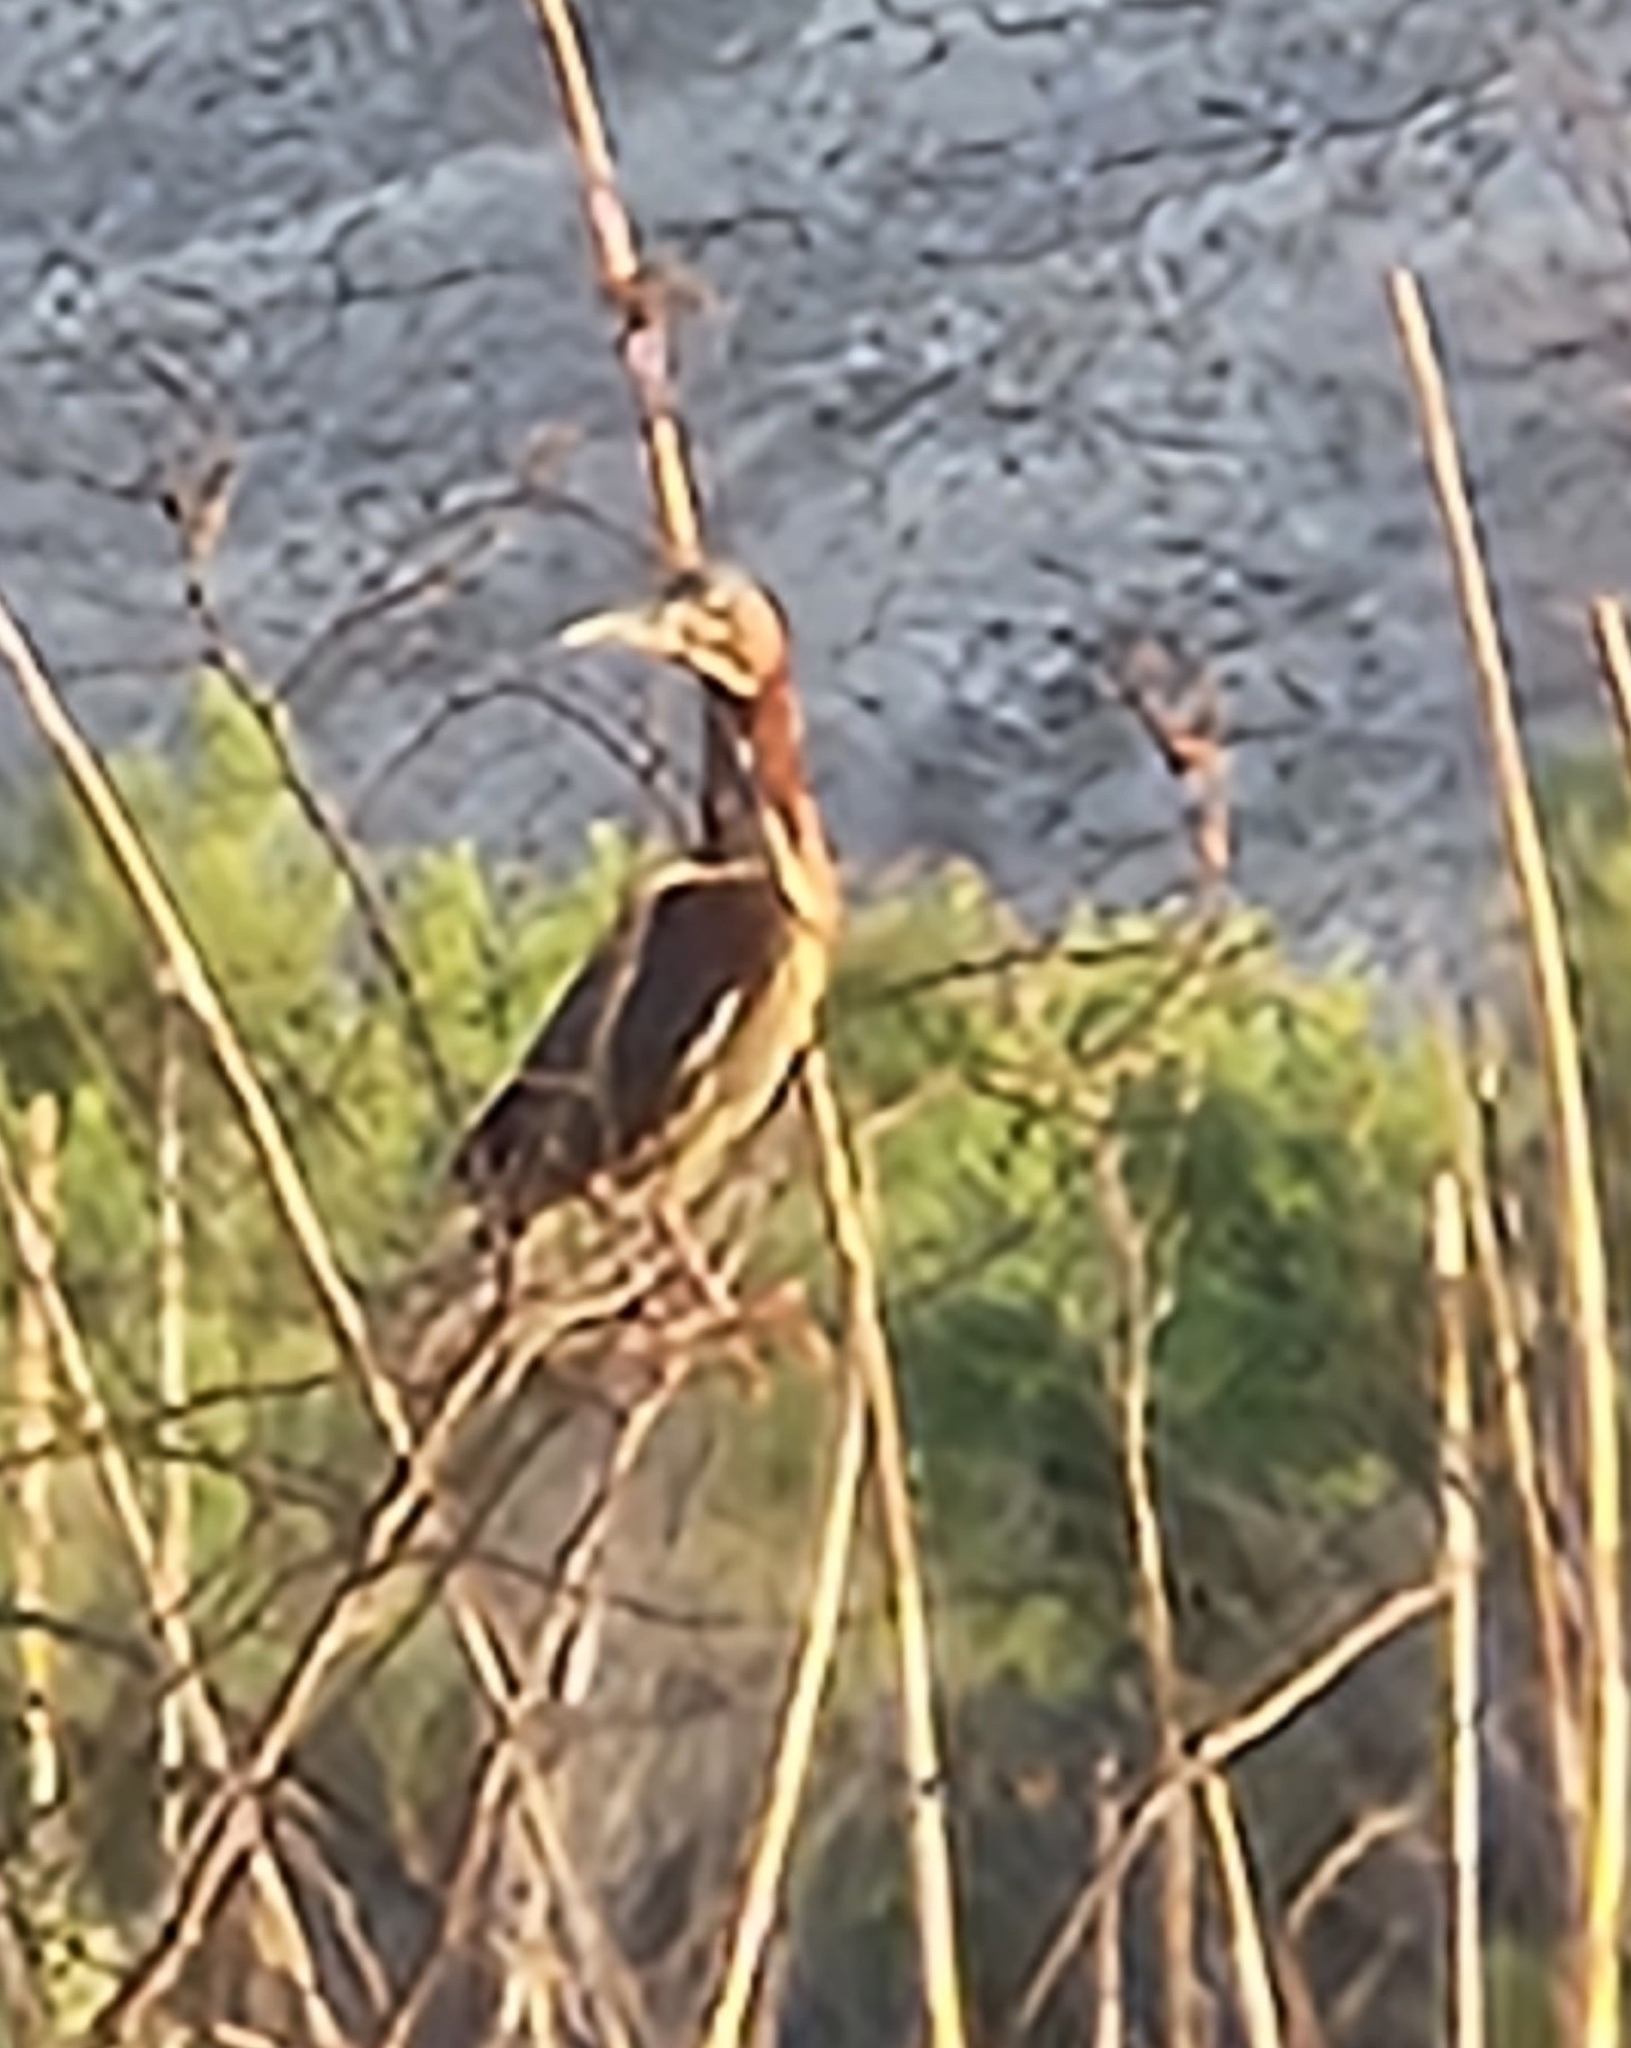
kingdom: Animalia
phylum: Chordata
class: Aves
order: Pelecaniformes
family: Ardeidae
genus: Butorides
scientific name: Butorides virescens
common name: Green heron
